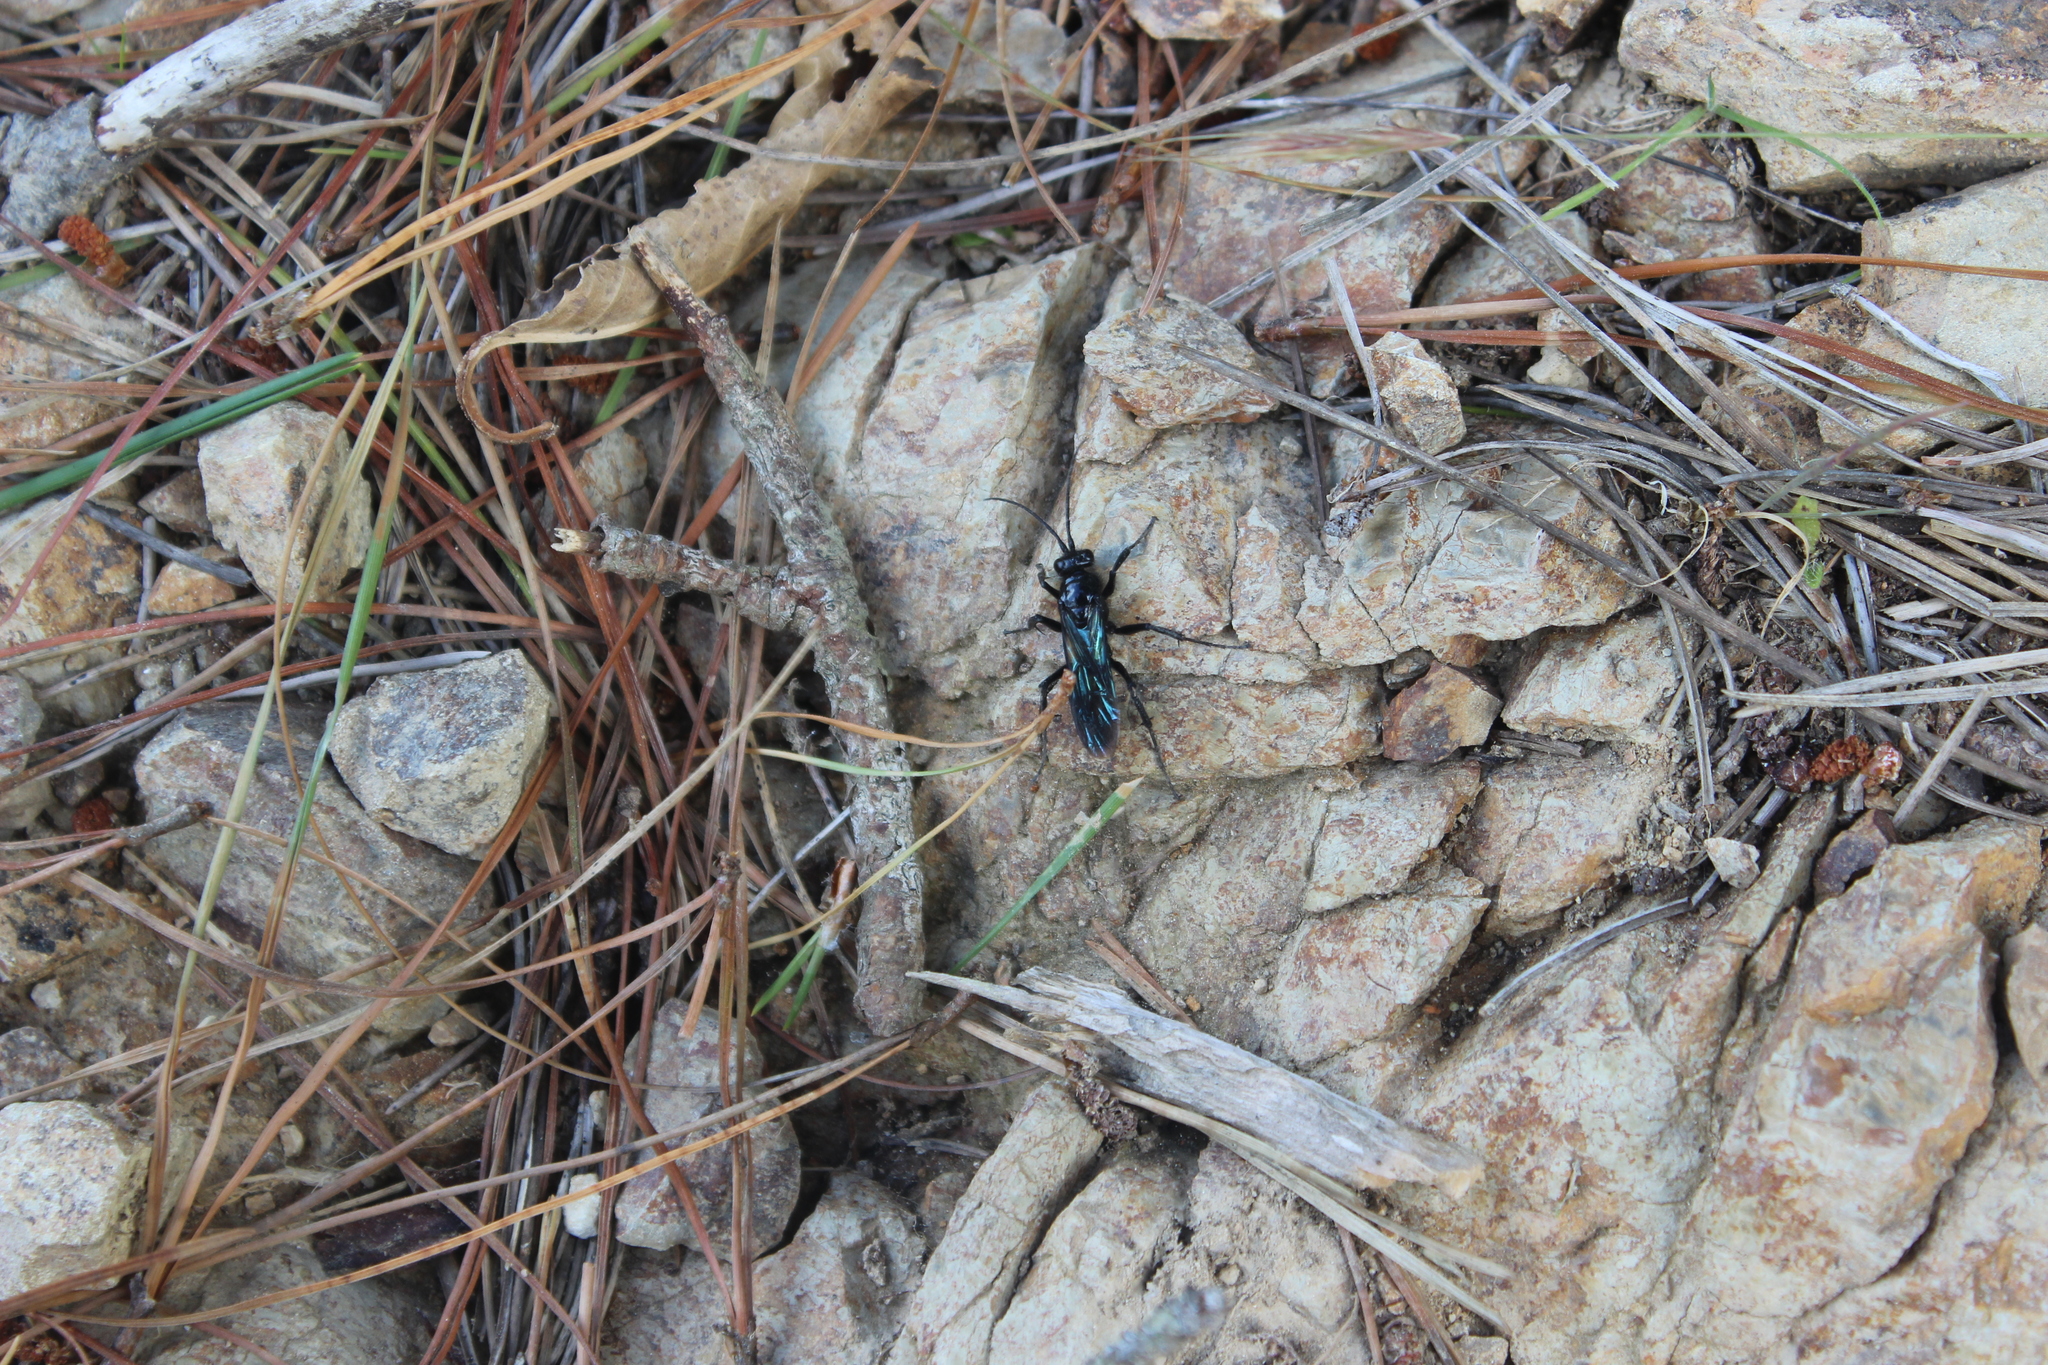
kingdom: Animalia
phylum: Arthropoda
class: Insecta
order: Hymenoptera
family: Pompilidae
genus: Priocnemis
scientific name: Priocnemis monachus
